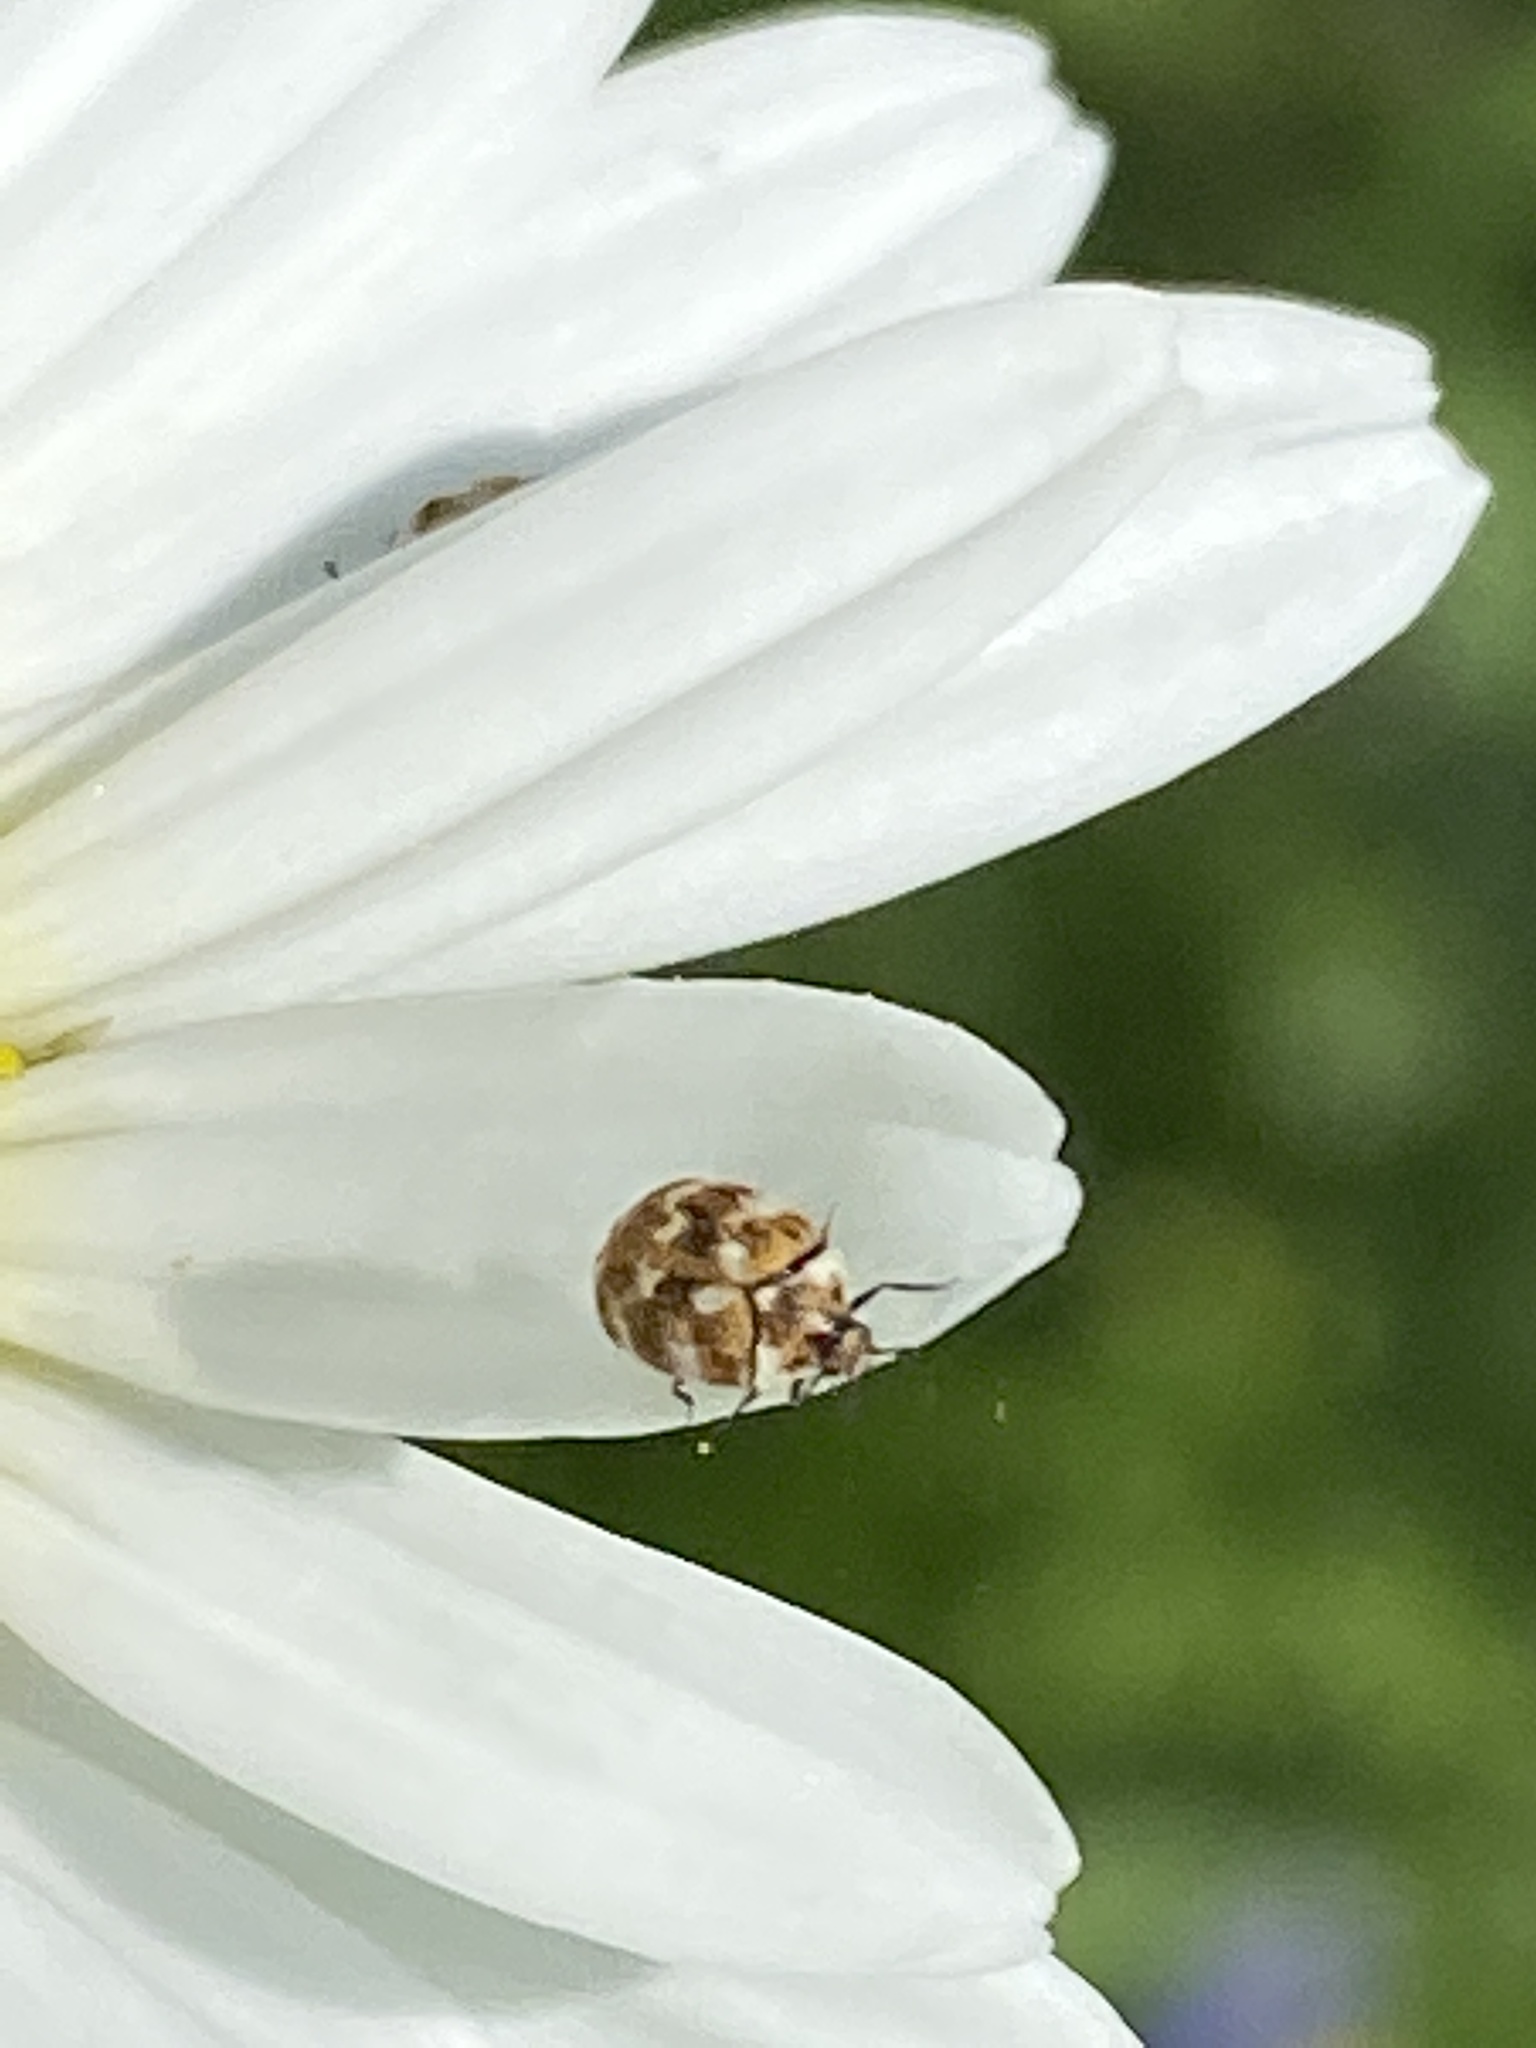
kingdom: Animalia
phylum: Arthropoda
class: Insecta
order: Coleoptera
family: Dermestidae
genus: Anthrenus
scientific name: Anthrenus verbasci
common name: Varied carpet beetle
